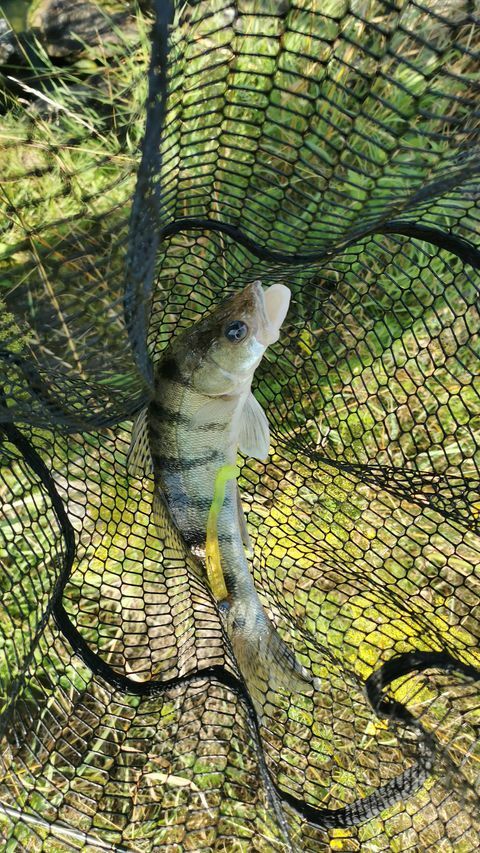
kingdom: Animalia
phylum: Chordata
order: Perciformes
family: Percidae
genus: Sander
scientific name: Sander volgensis
